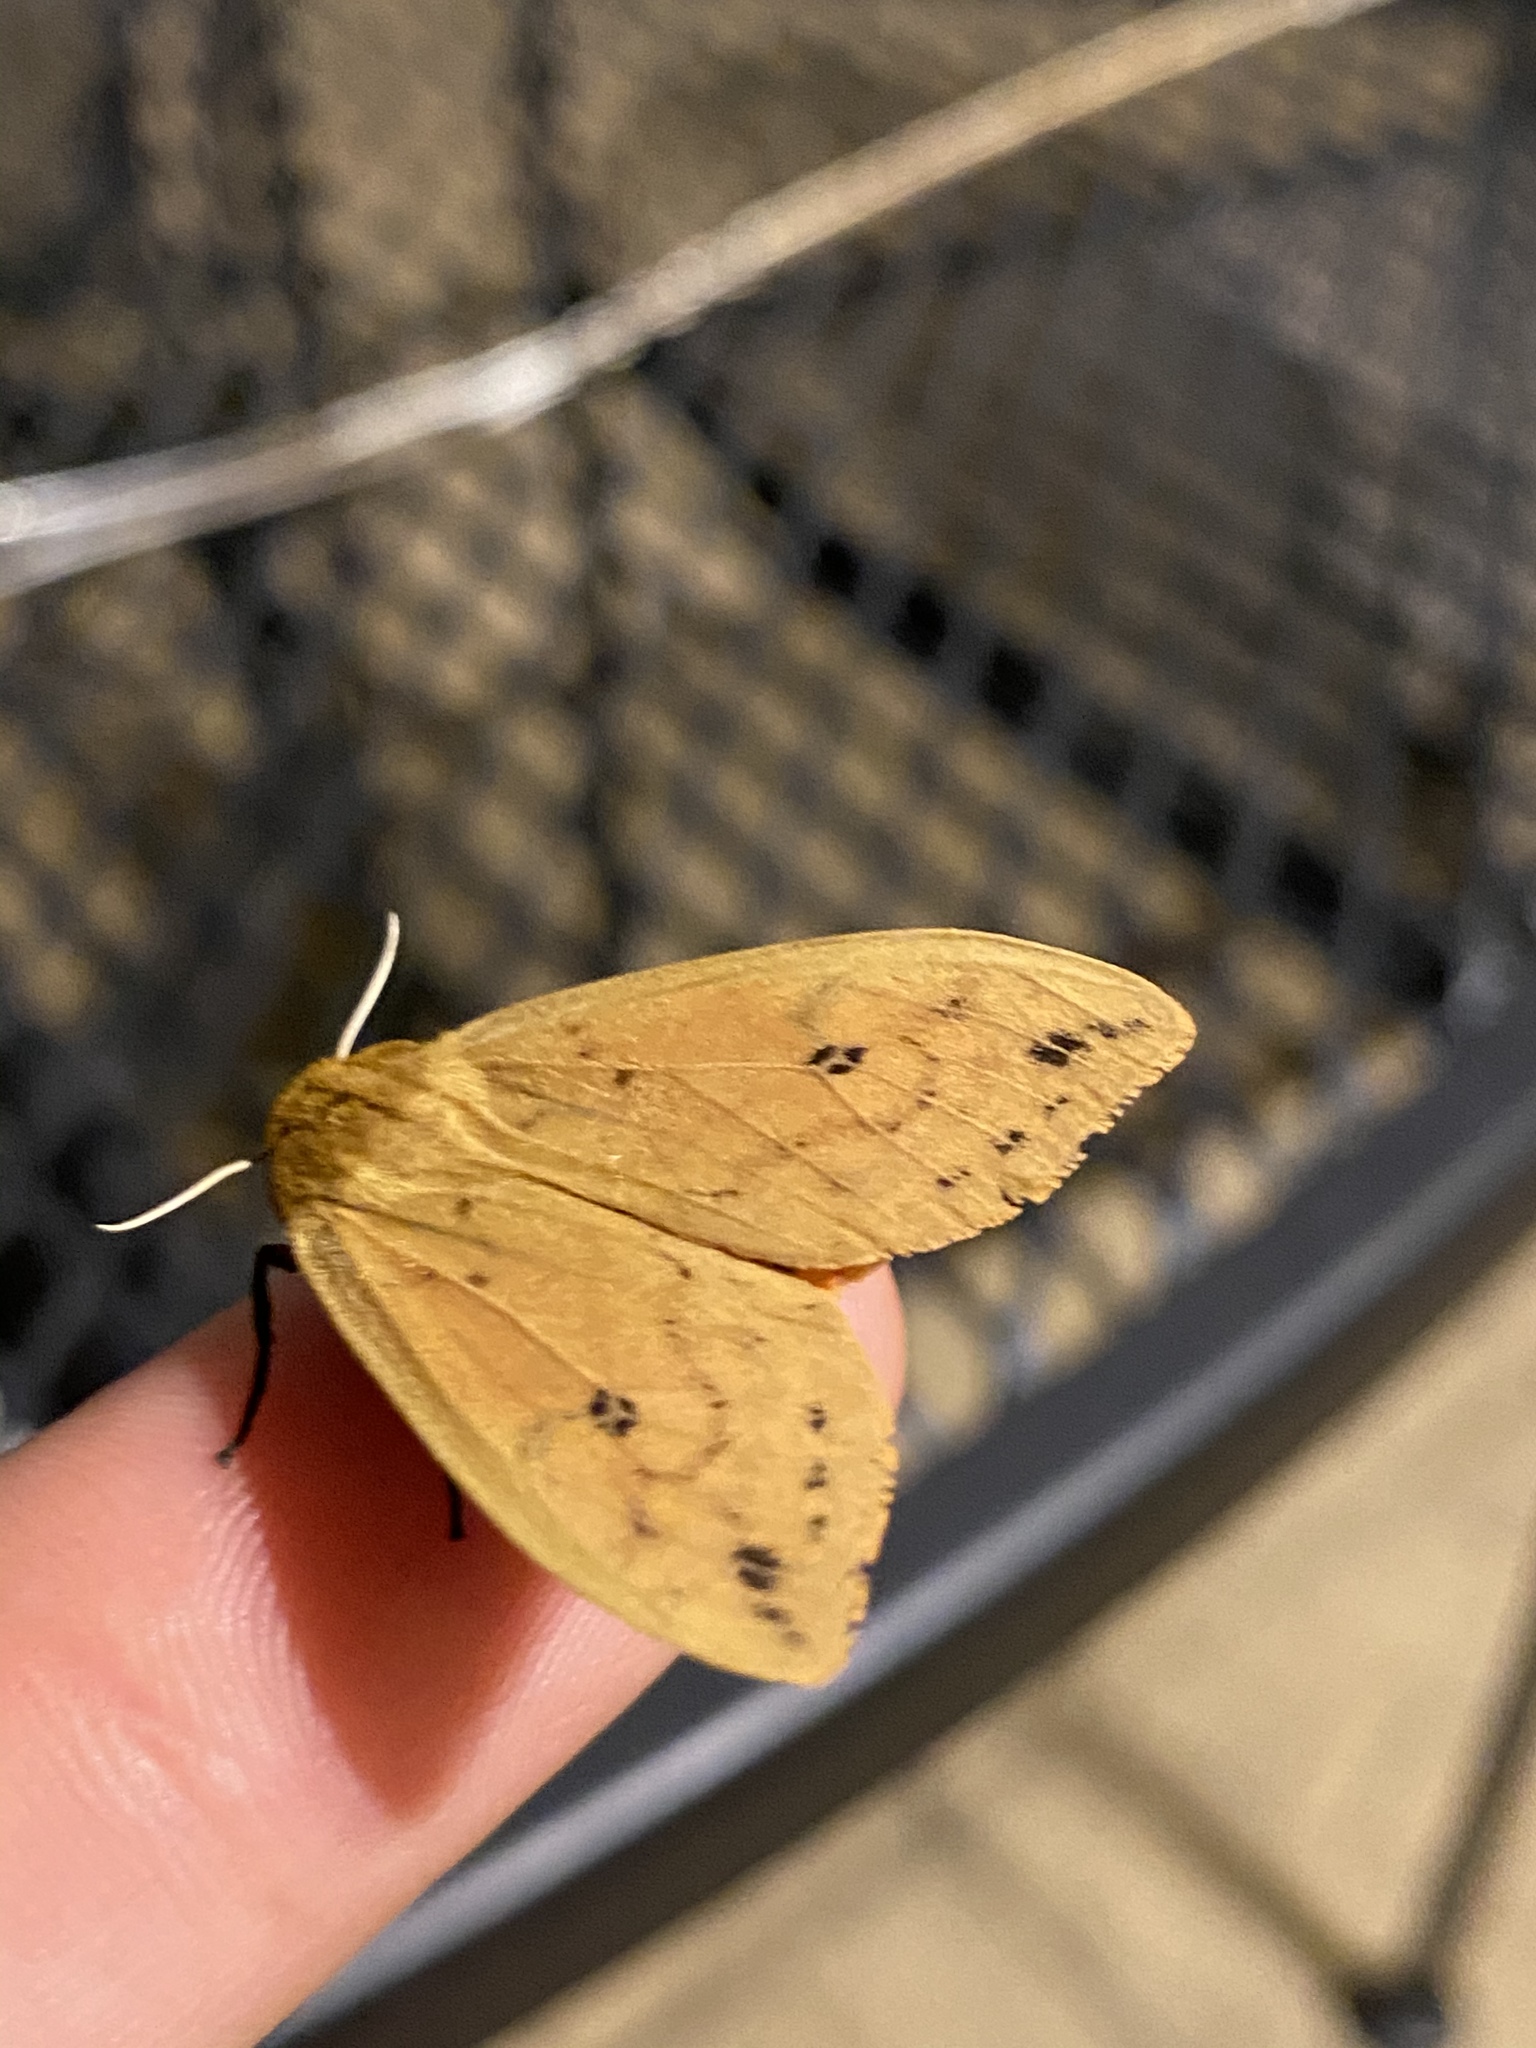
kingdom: Animalia
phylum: Arthropoda
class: Insecta
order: Lepidoptera
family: Erebidae
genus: Pyrrharctia
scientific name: Pyrrharctia isabella
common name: Isabella tiger moth
